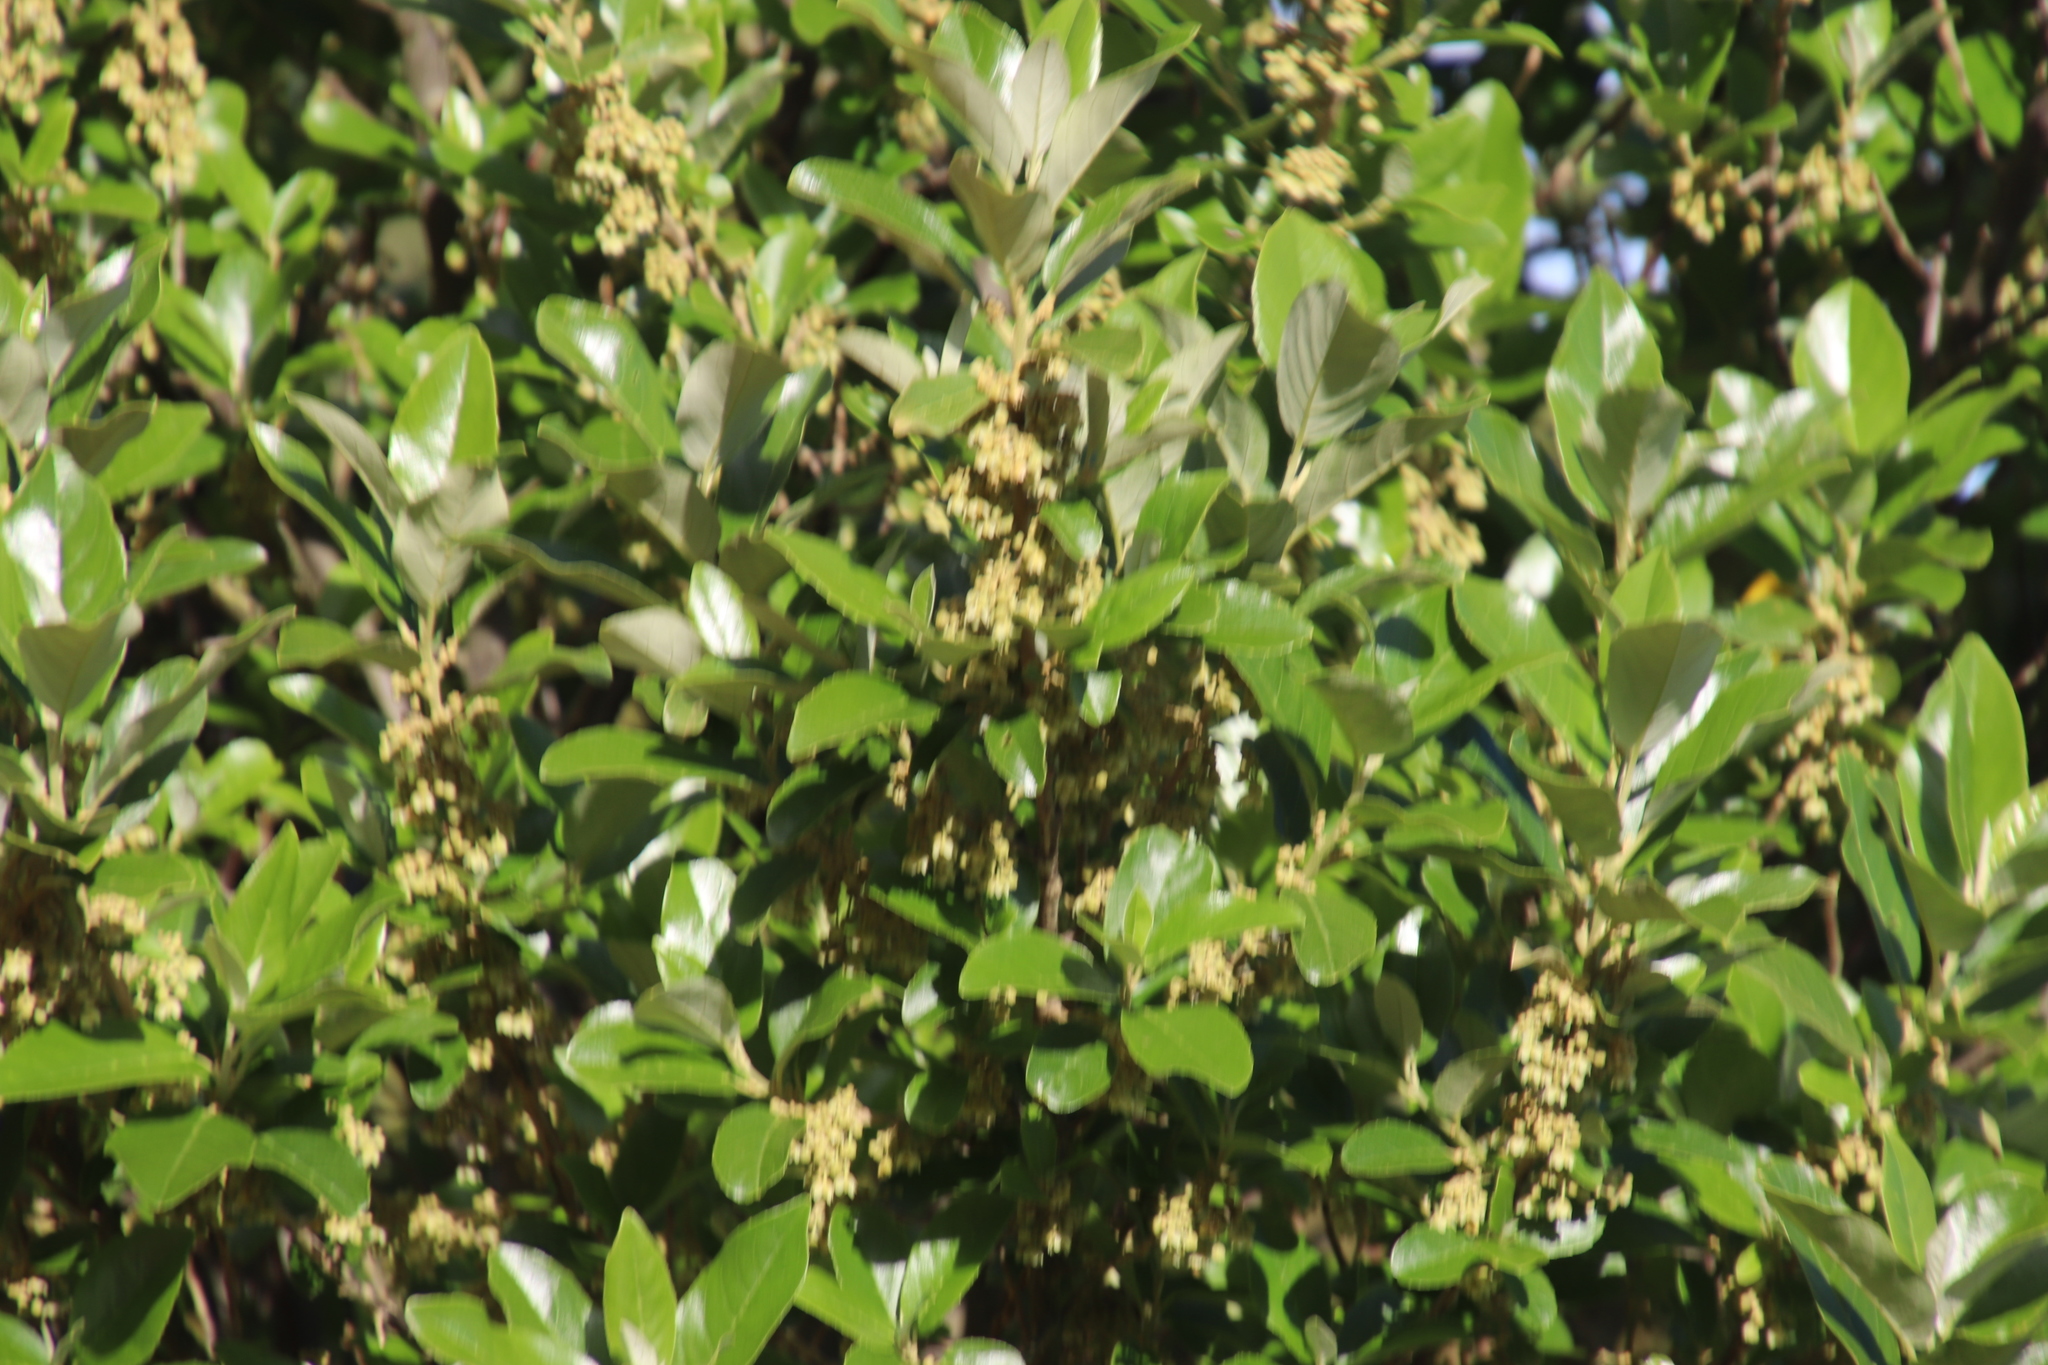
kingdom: Plantae
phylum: Tracheophyta
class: Magnoliopsida
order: Malpighiales
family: Achariaceae
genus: Kiggelaria
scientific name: Kiggelaria africana
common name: Wild peach
